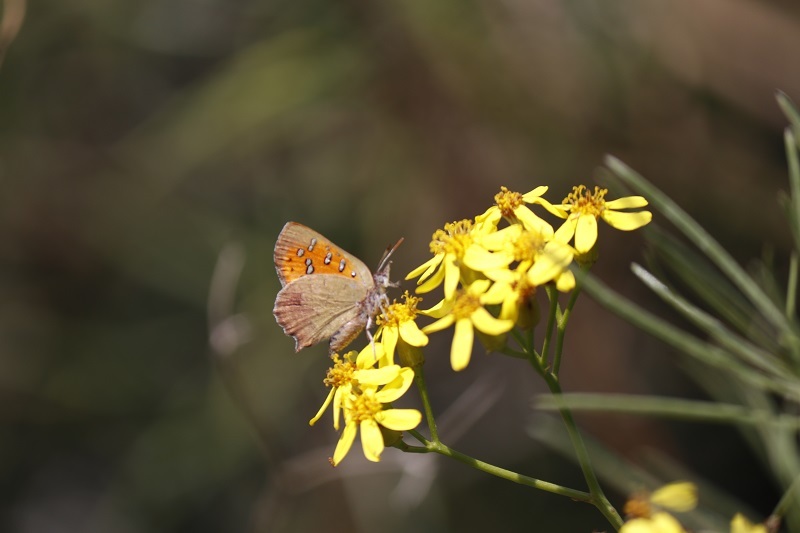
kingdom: Animalia
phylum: Arthropoda
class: Insecta
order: Lepidoptera
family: Lycaenidae
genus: Zeritis
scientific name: Zeritis chrysaor
